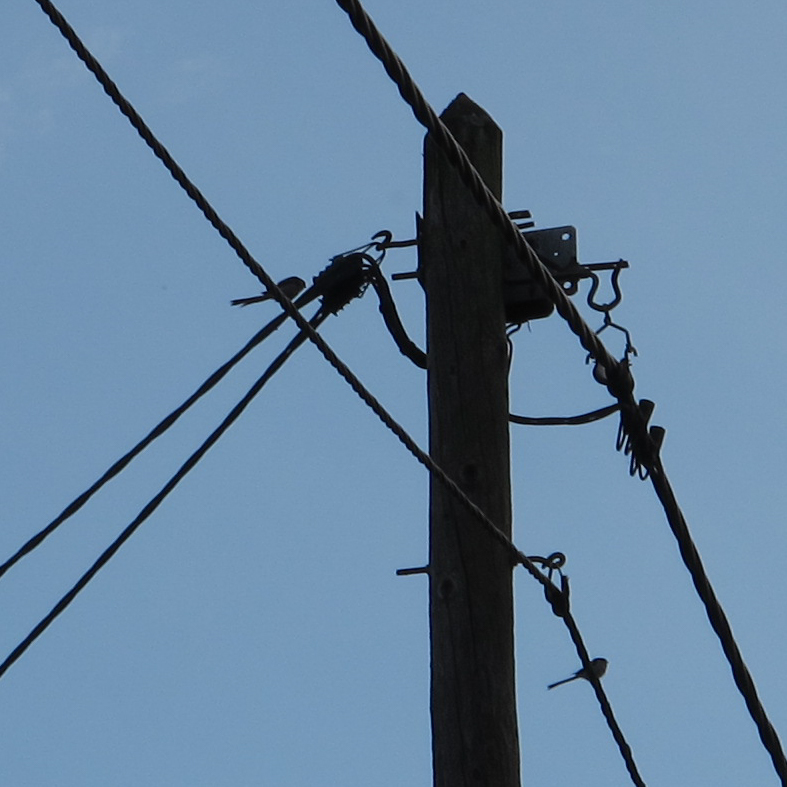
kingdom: Animalia
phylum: Chordata
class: Aves
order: Passeriformes
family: Aegithalidae
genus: Aegithalos
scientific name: Aegithalos caudatus
